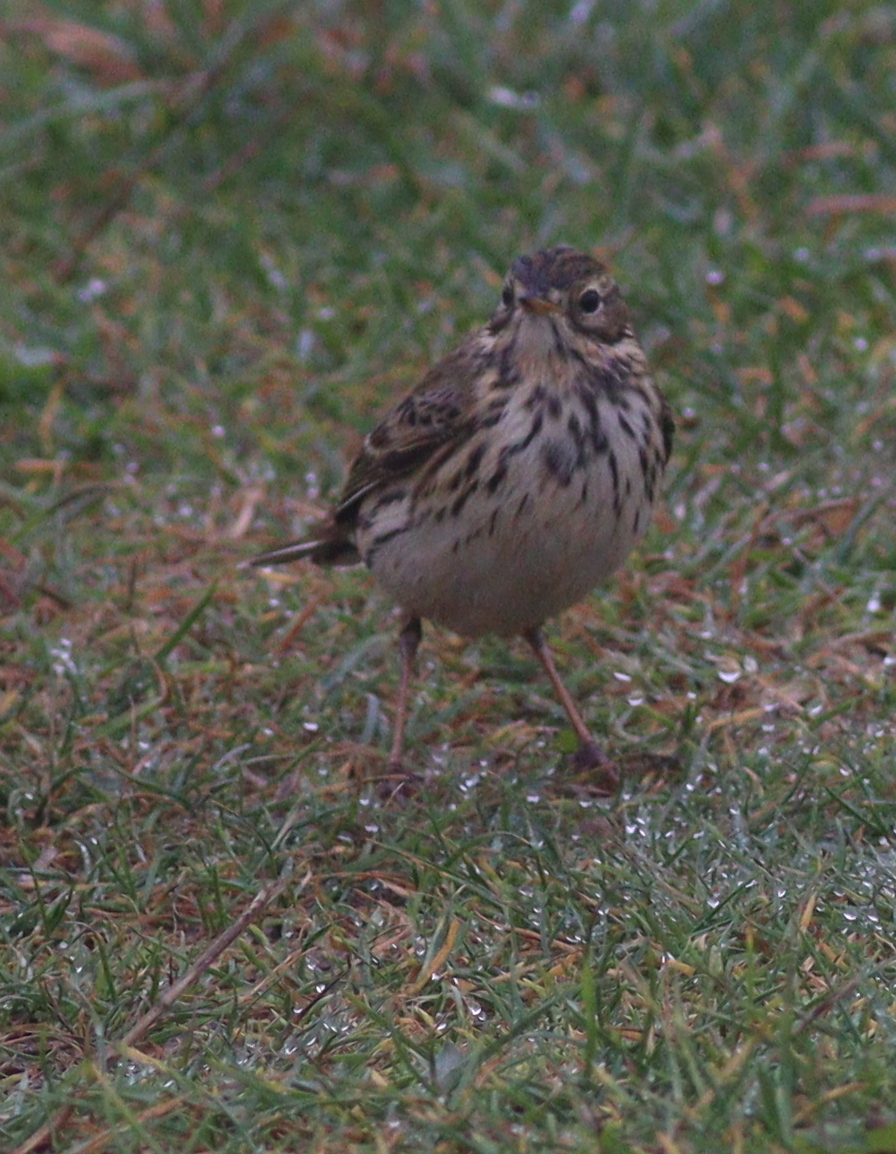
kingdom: Animalia
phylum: Chordata
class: Aves
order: Passeriformes
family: Motacillidae
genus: Anthus
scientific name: Anthus pratensis
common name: Meadow pipit
